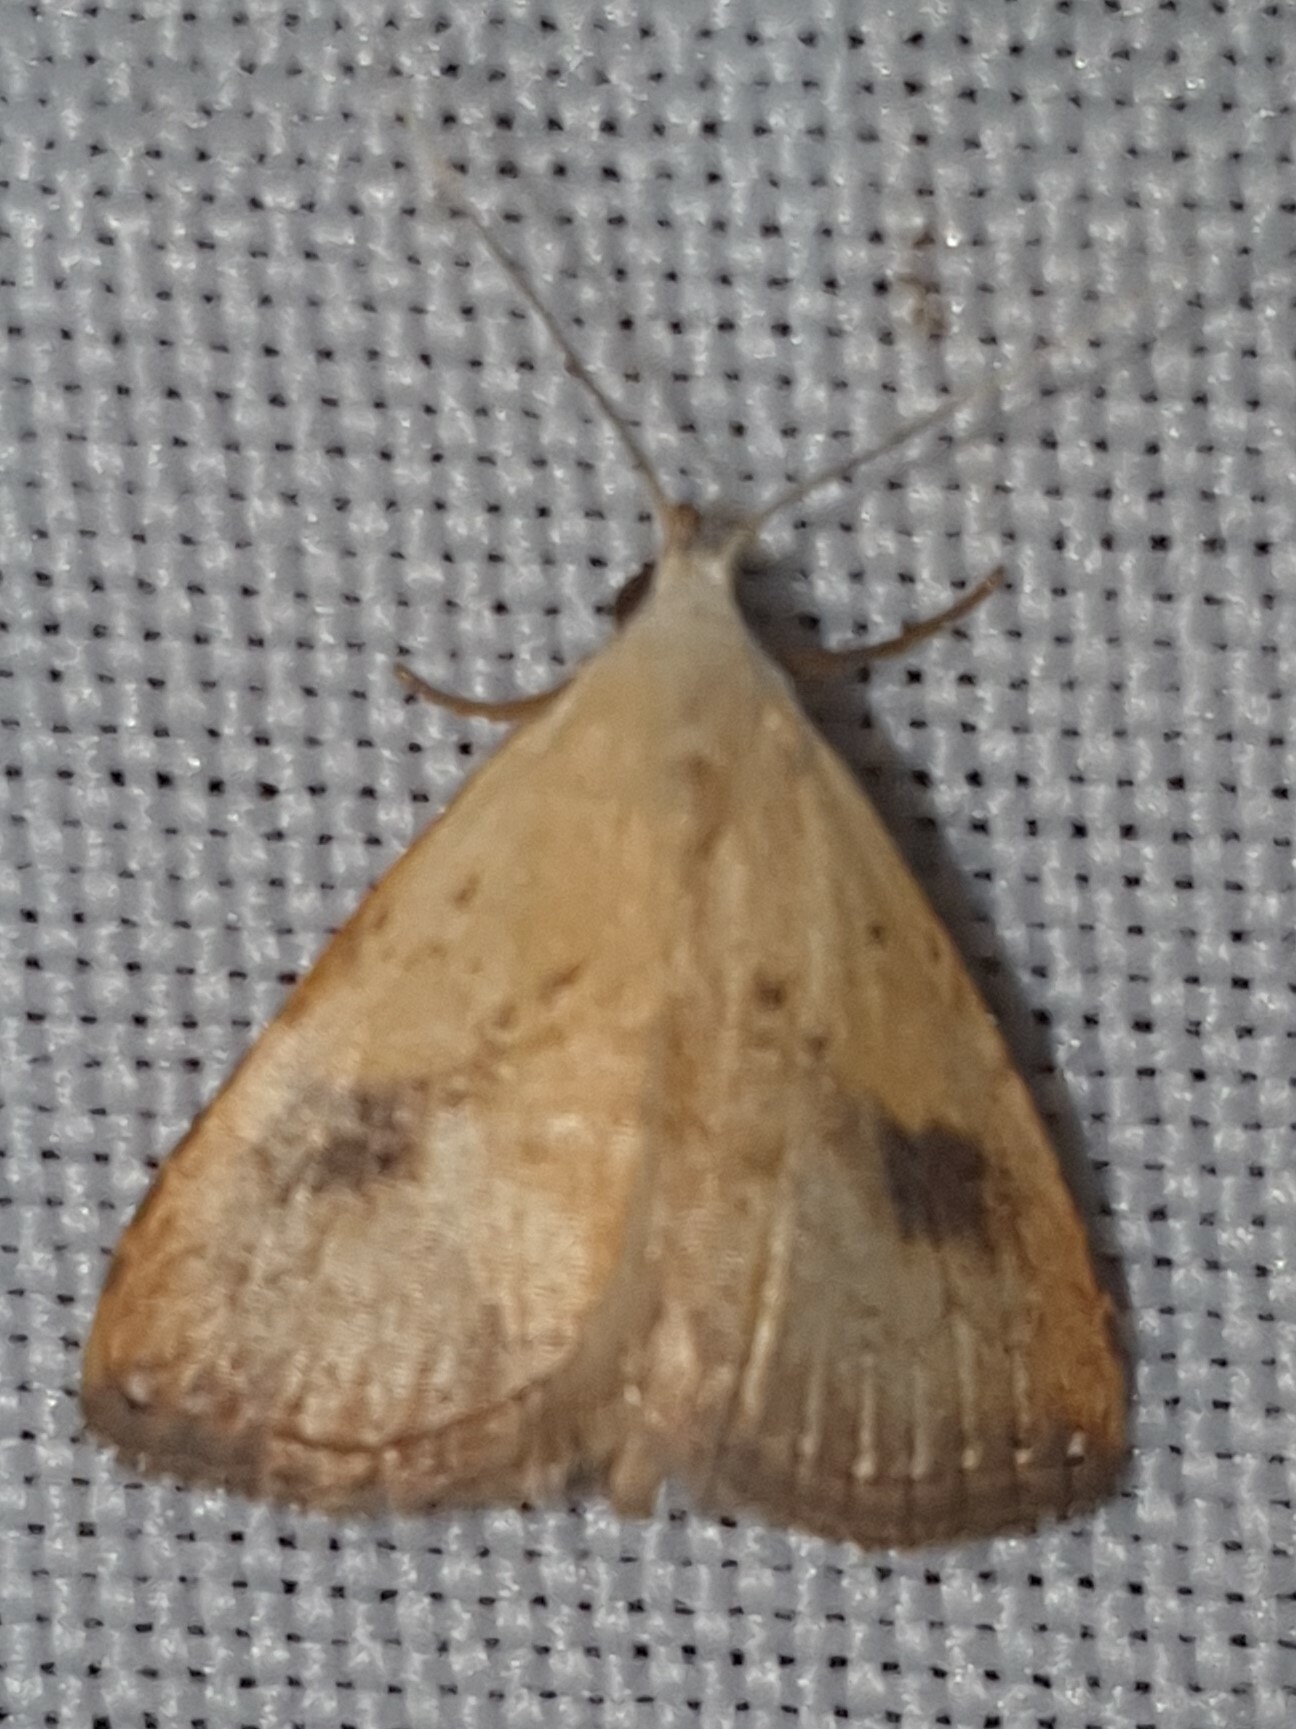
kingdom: Animalia
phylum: Arthropoda
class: Insecta
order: Lepidoptera
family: Erebidae
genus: Rivula
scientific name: Rivula sericealis
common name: Straw dot
